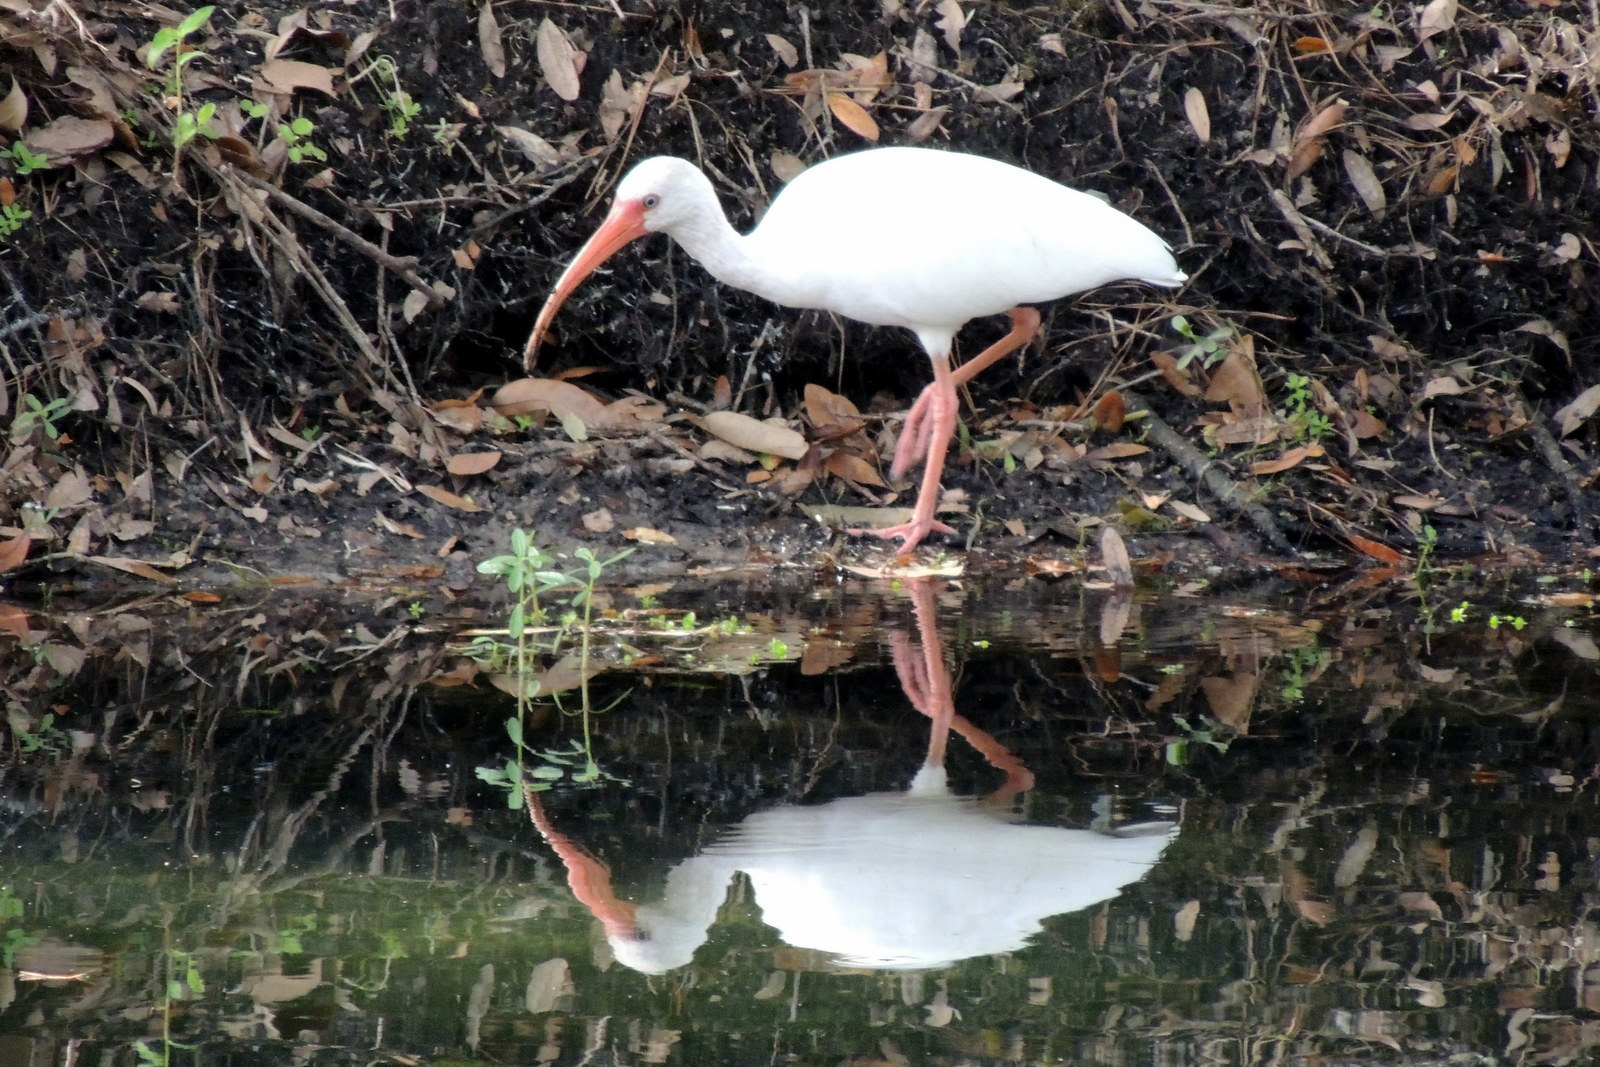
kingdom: Animalia
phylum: Chordata
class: Aves
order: Pelecaniformes
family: Threskiornithidae
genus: Eudocimus
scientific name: Eudocimus albus
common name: White ibis
